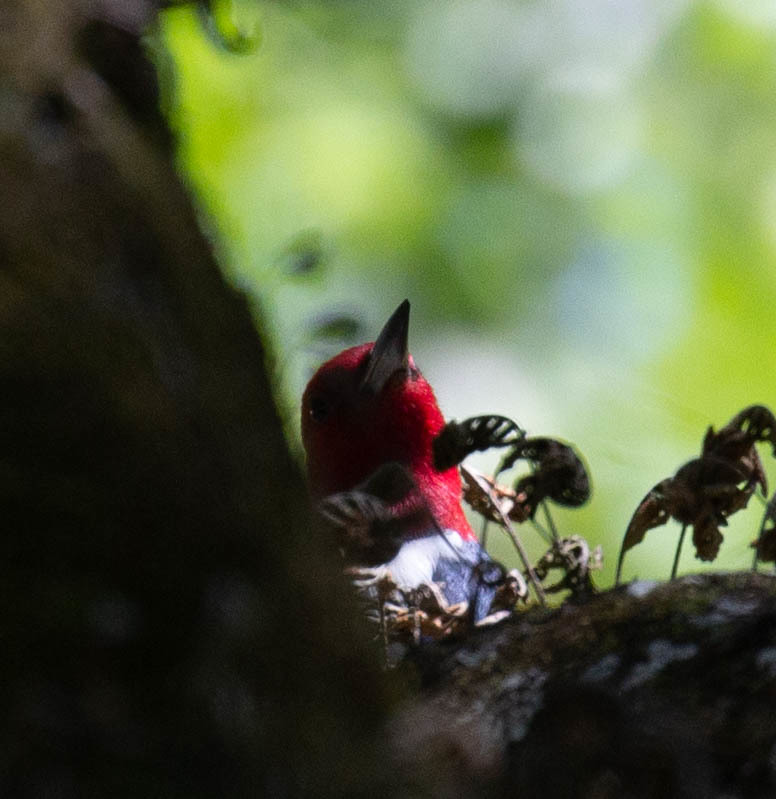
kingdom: Animalia
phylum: Chordata
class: Aves
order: Piciformes
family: Picidae
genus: Melanerpes
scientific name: Melanerpes erythrocephalus
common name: Red-headed woodpecker
